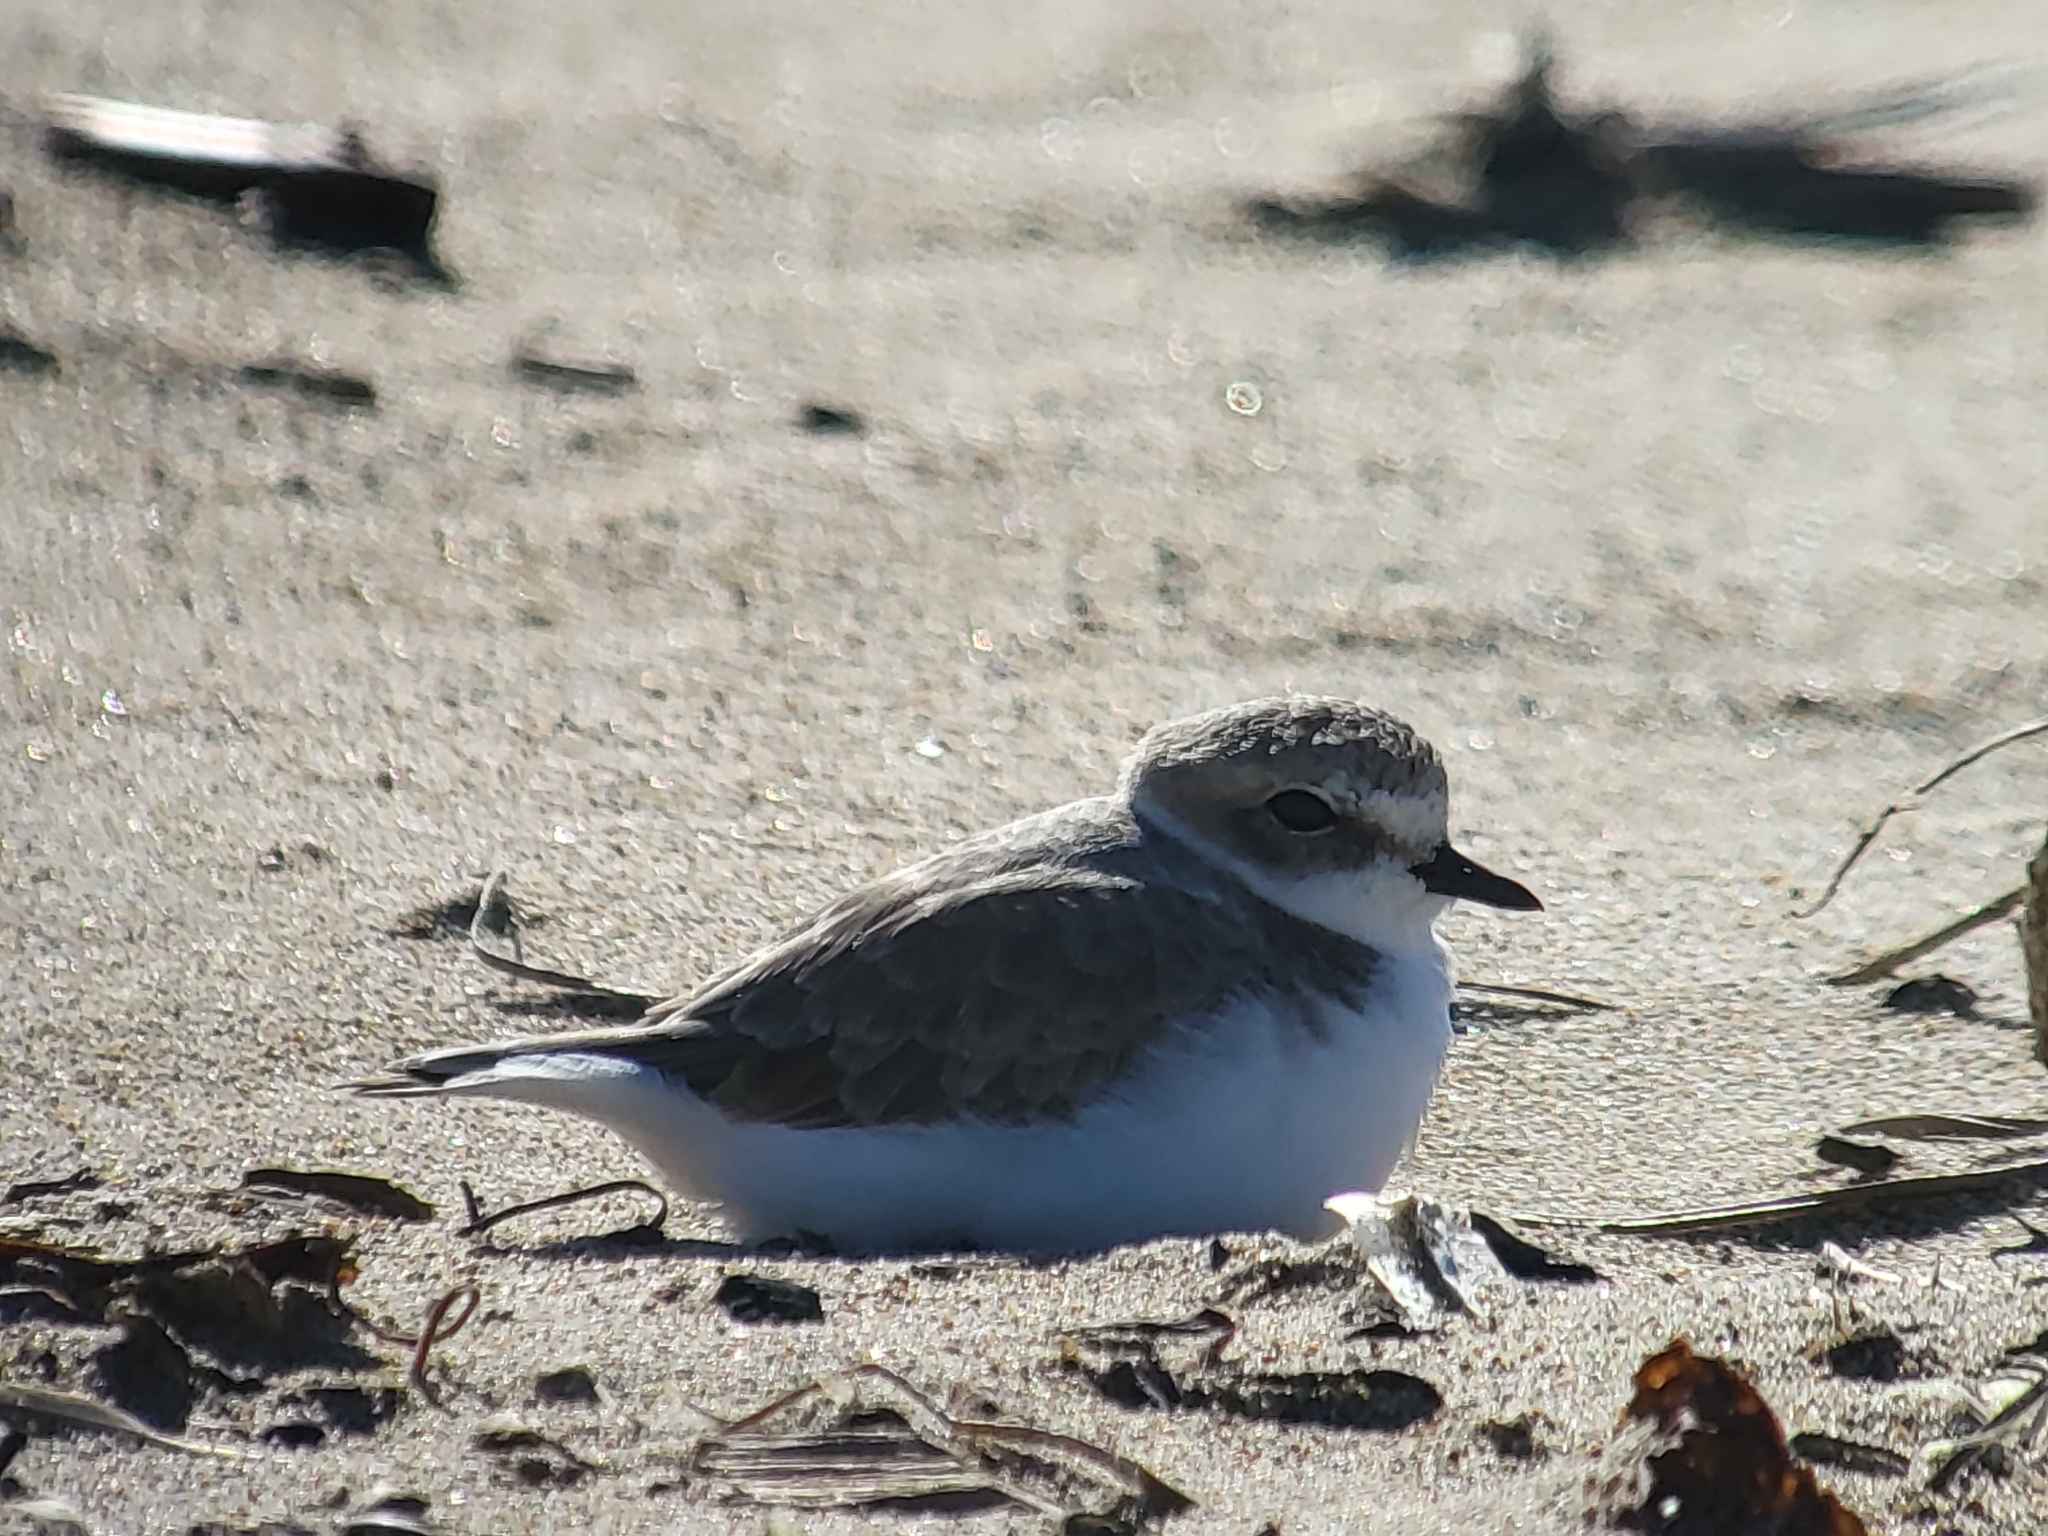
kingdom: Animalia
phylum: Chordata
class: Aves
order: Charadriiformes
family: Charadriidae
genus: Anarhynchus
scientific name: Anarhynchus
